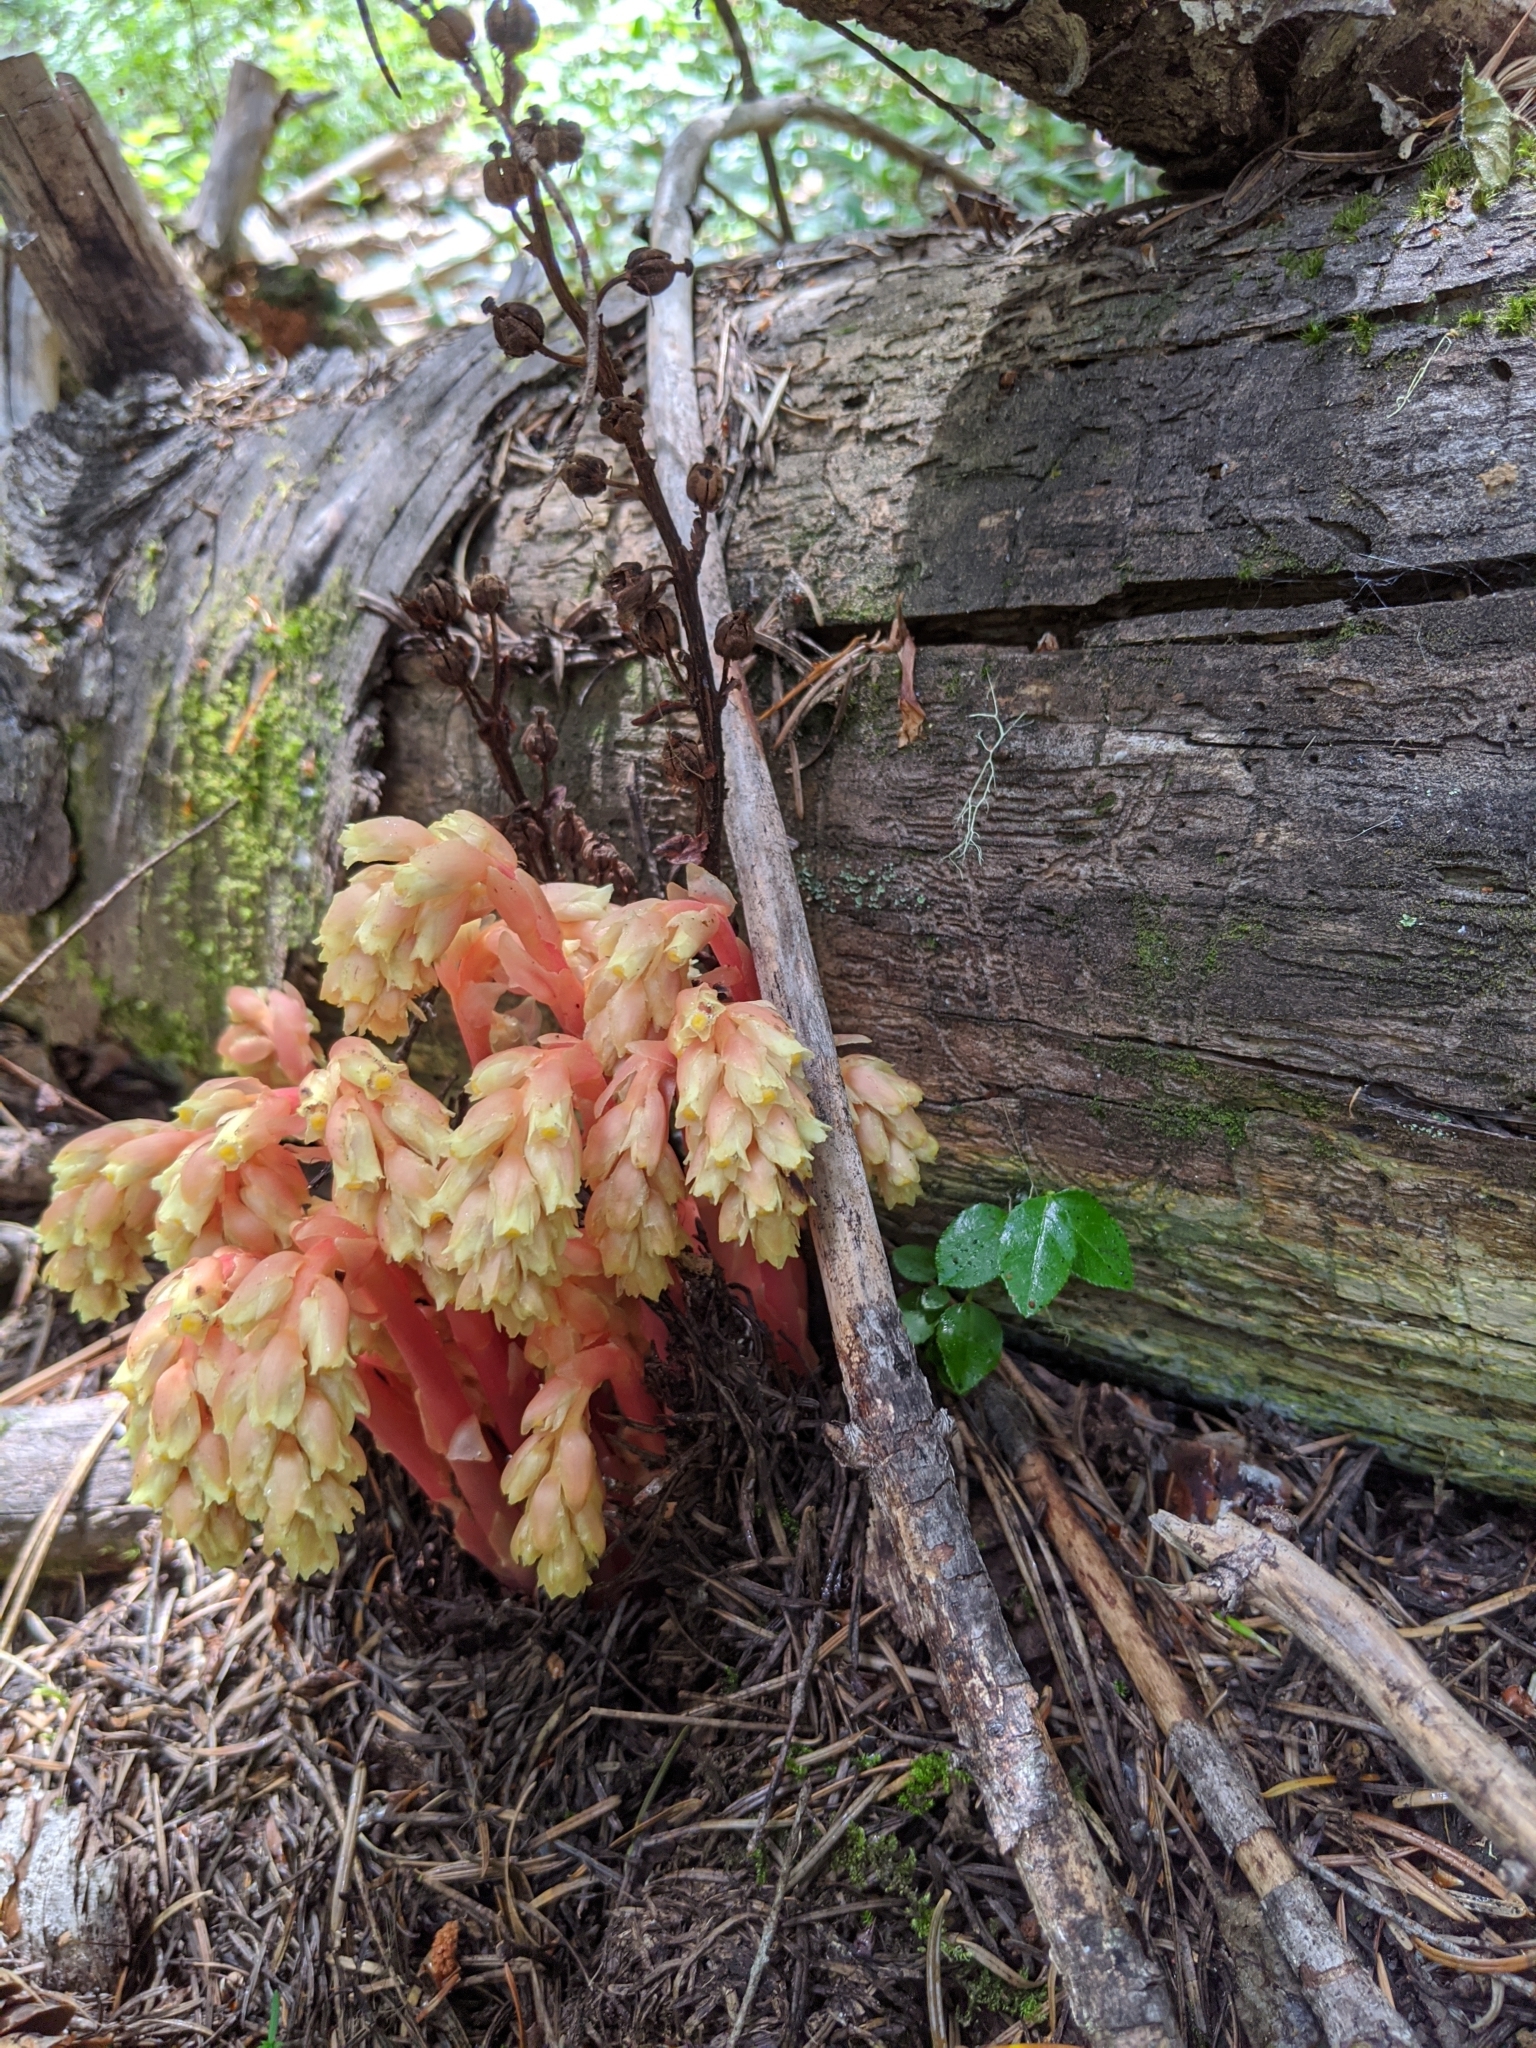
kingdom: Plantae
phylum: Tracheophyta
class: Magnoliopsida
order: Ericales
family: Ericaceae
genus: Hypopitys
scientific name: Hypopitys monotropa
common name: Yellow bird's-nest
